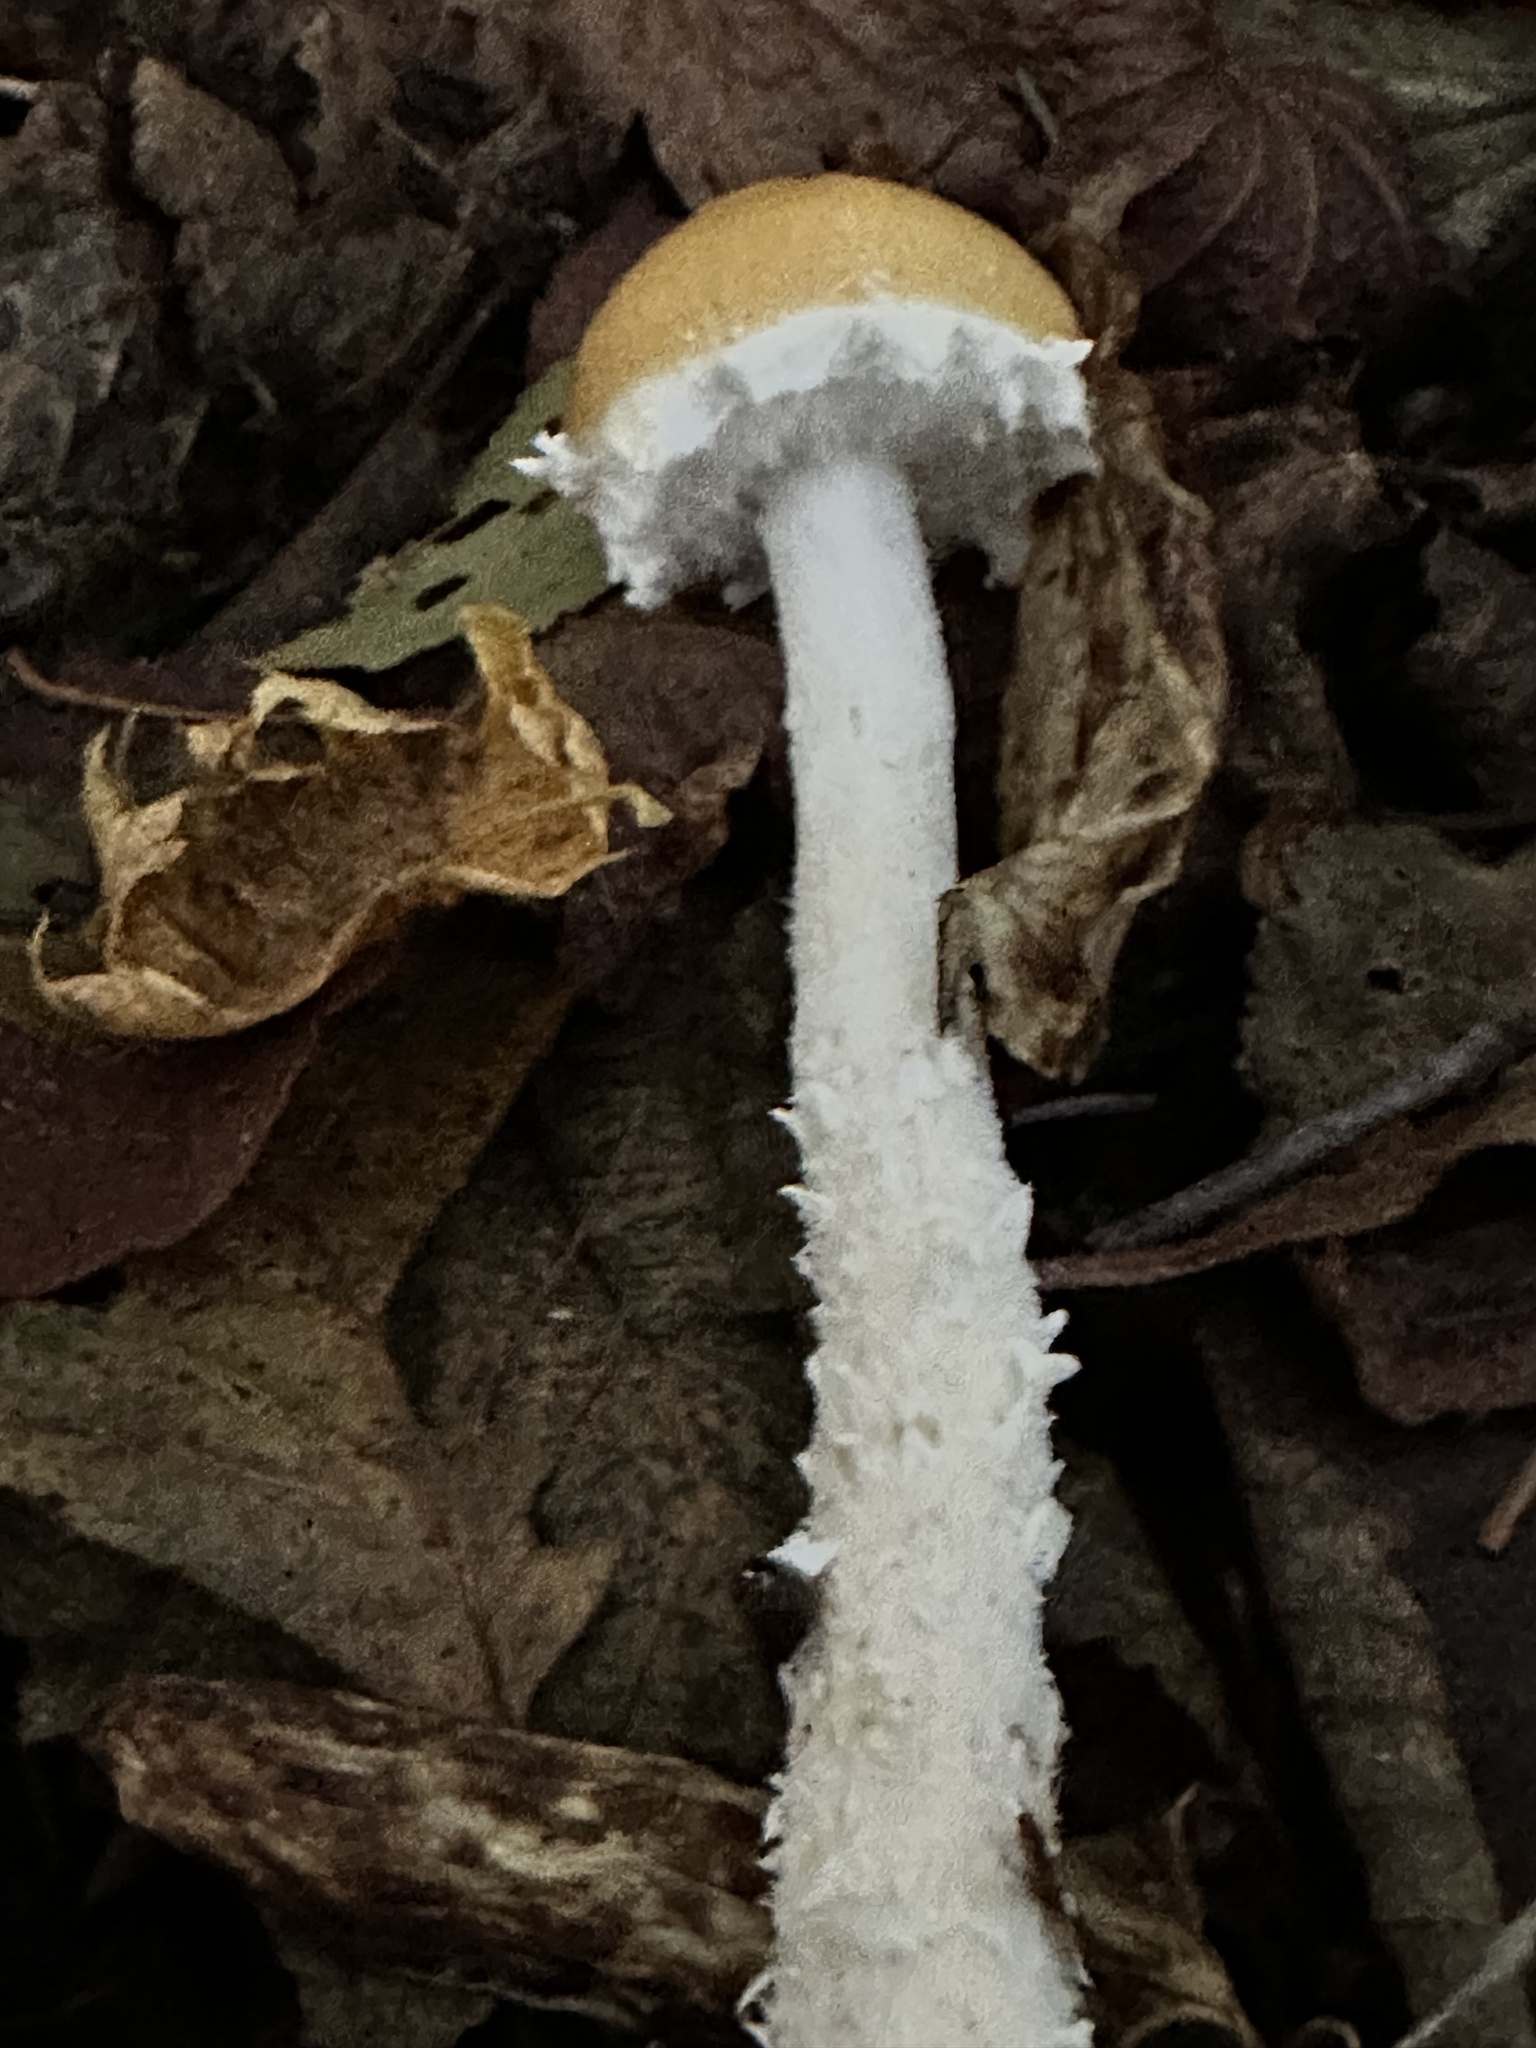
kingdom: Fungi
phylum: Basidiomycota
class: Agaricomycetes
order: Agaricales
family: Strophariaceae
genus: Stropharia
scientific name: Stropharia ambigua
